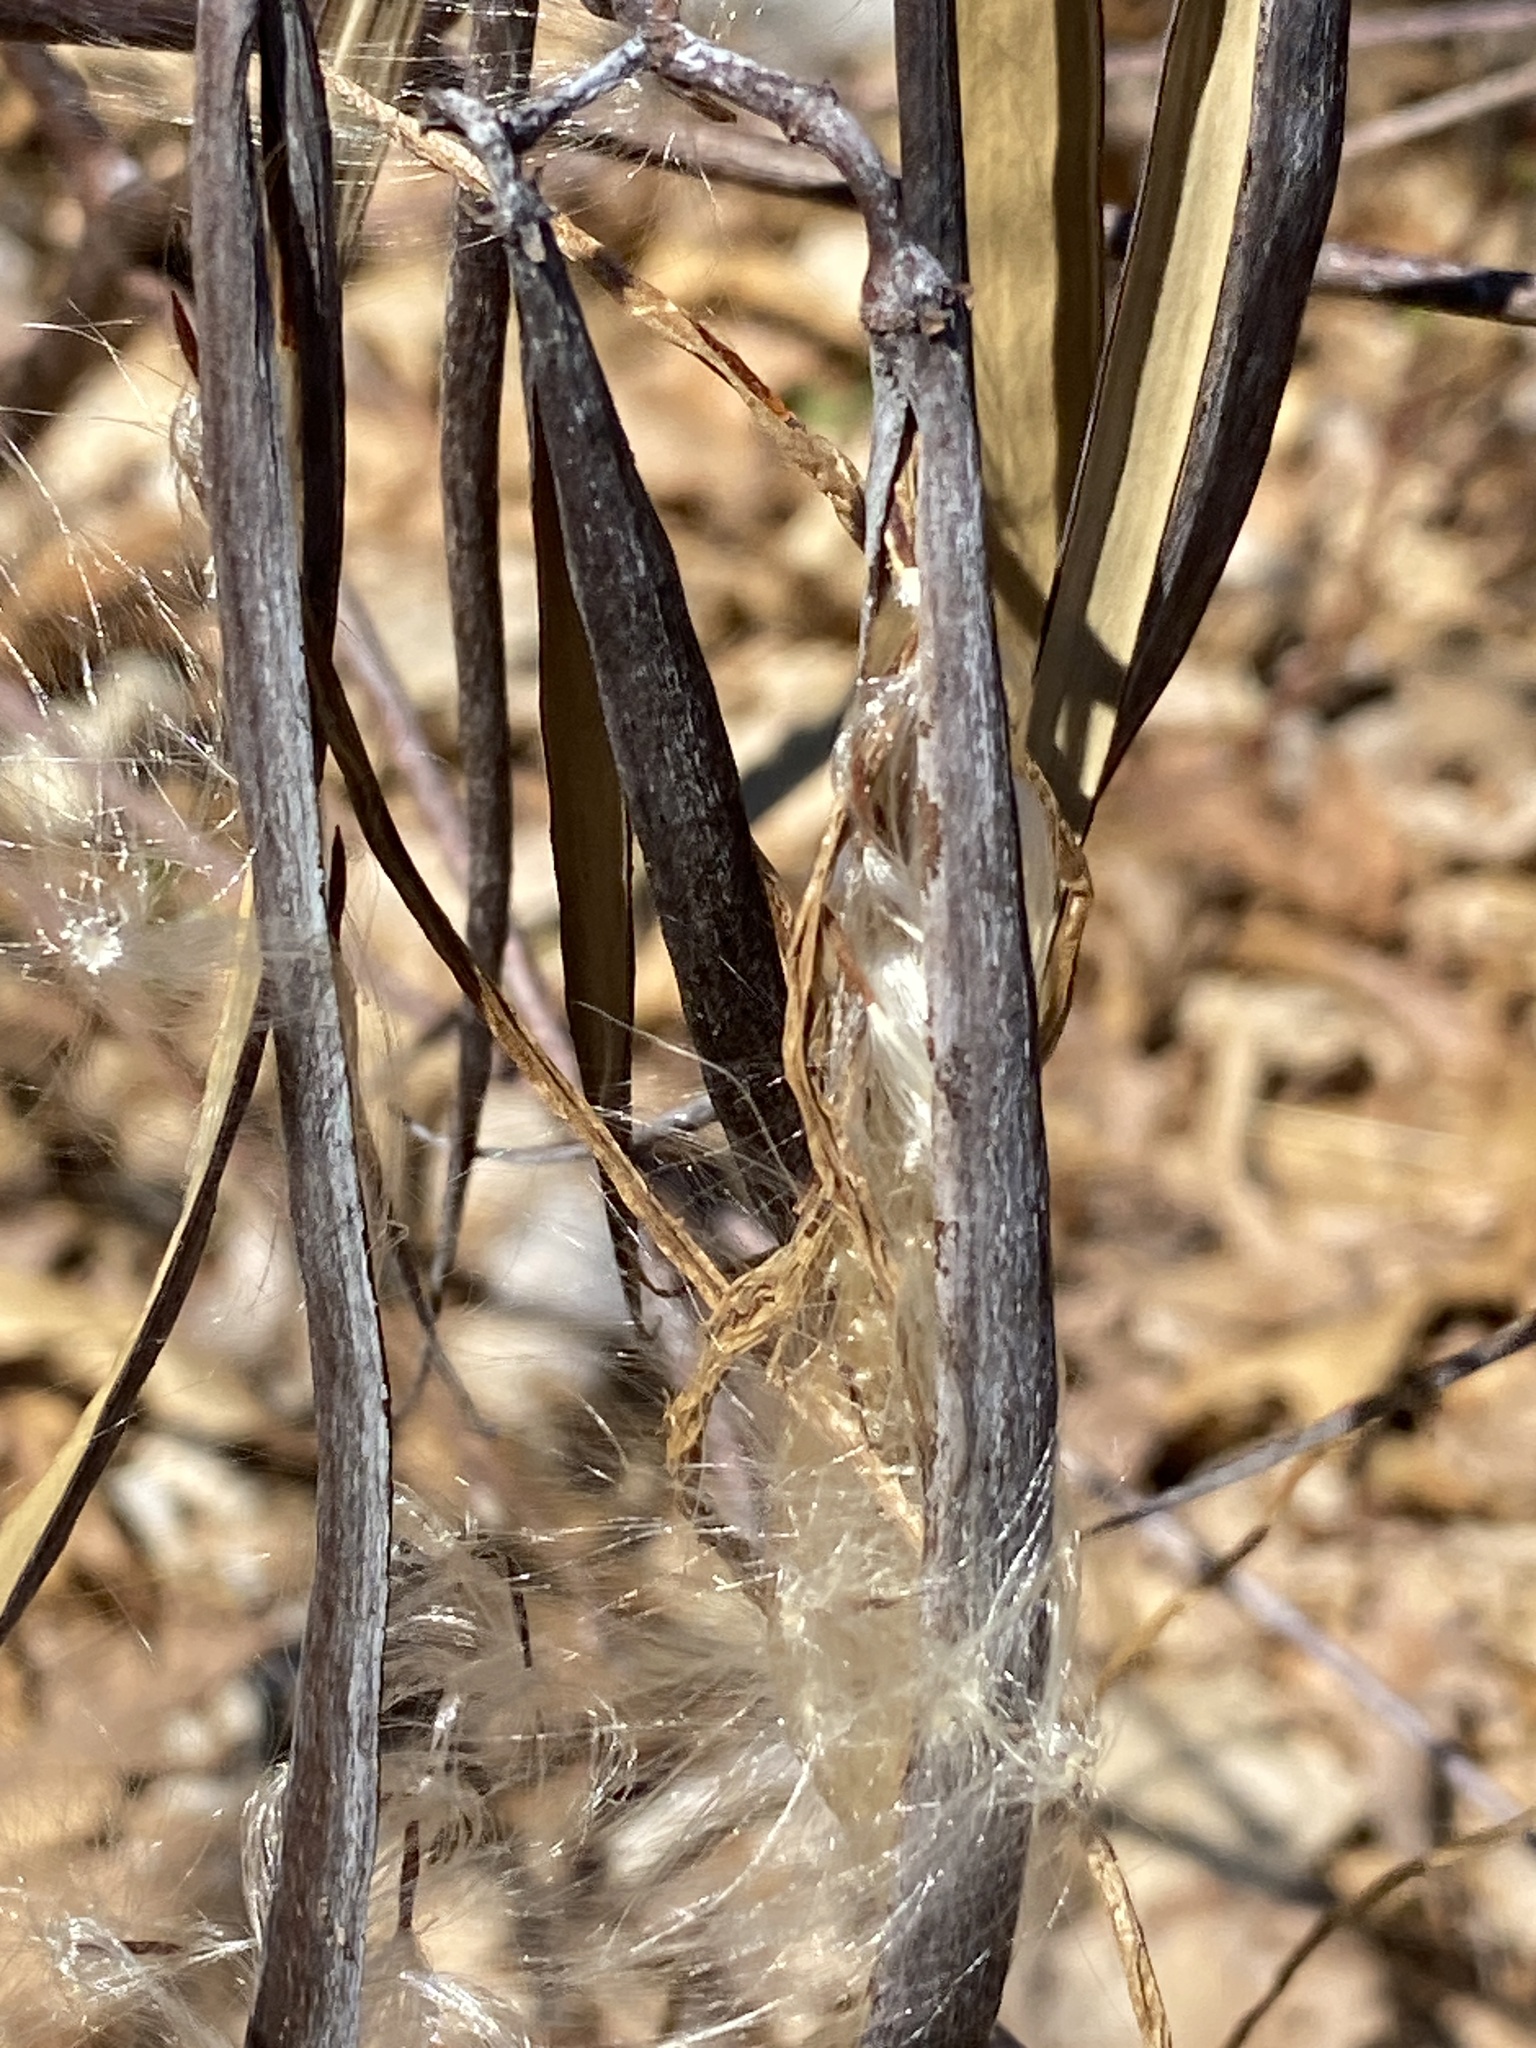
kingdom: Plantae
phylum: Tracheophyta
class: Magnoliopsida
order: Gentianales
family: Apocynaceae
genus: Apocynum
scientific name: Apocynum cannabinum
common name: Hemp dogbane
